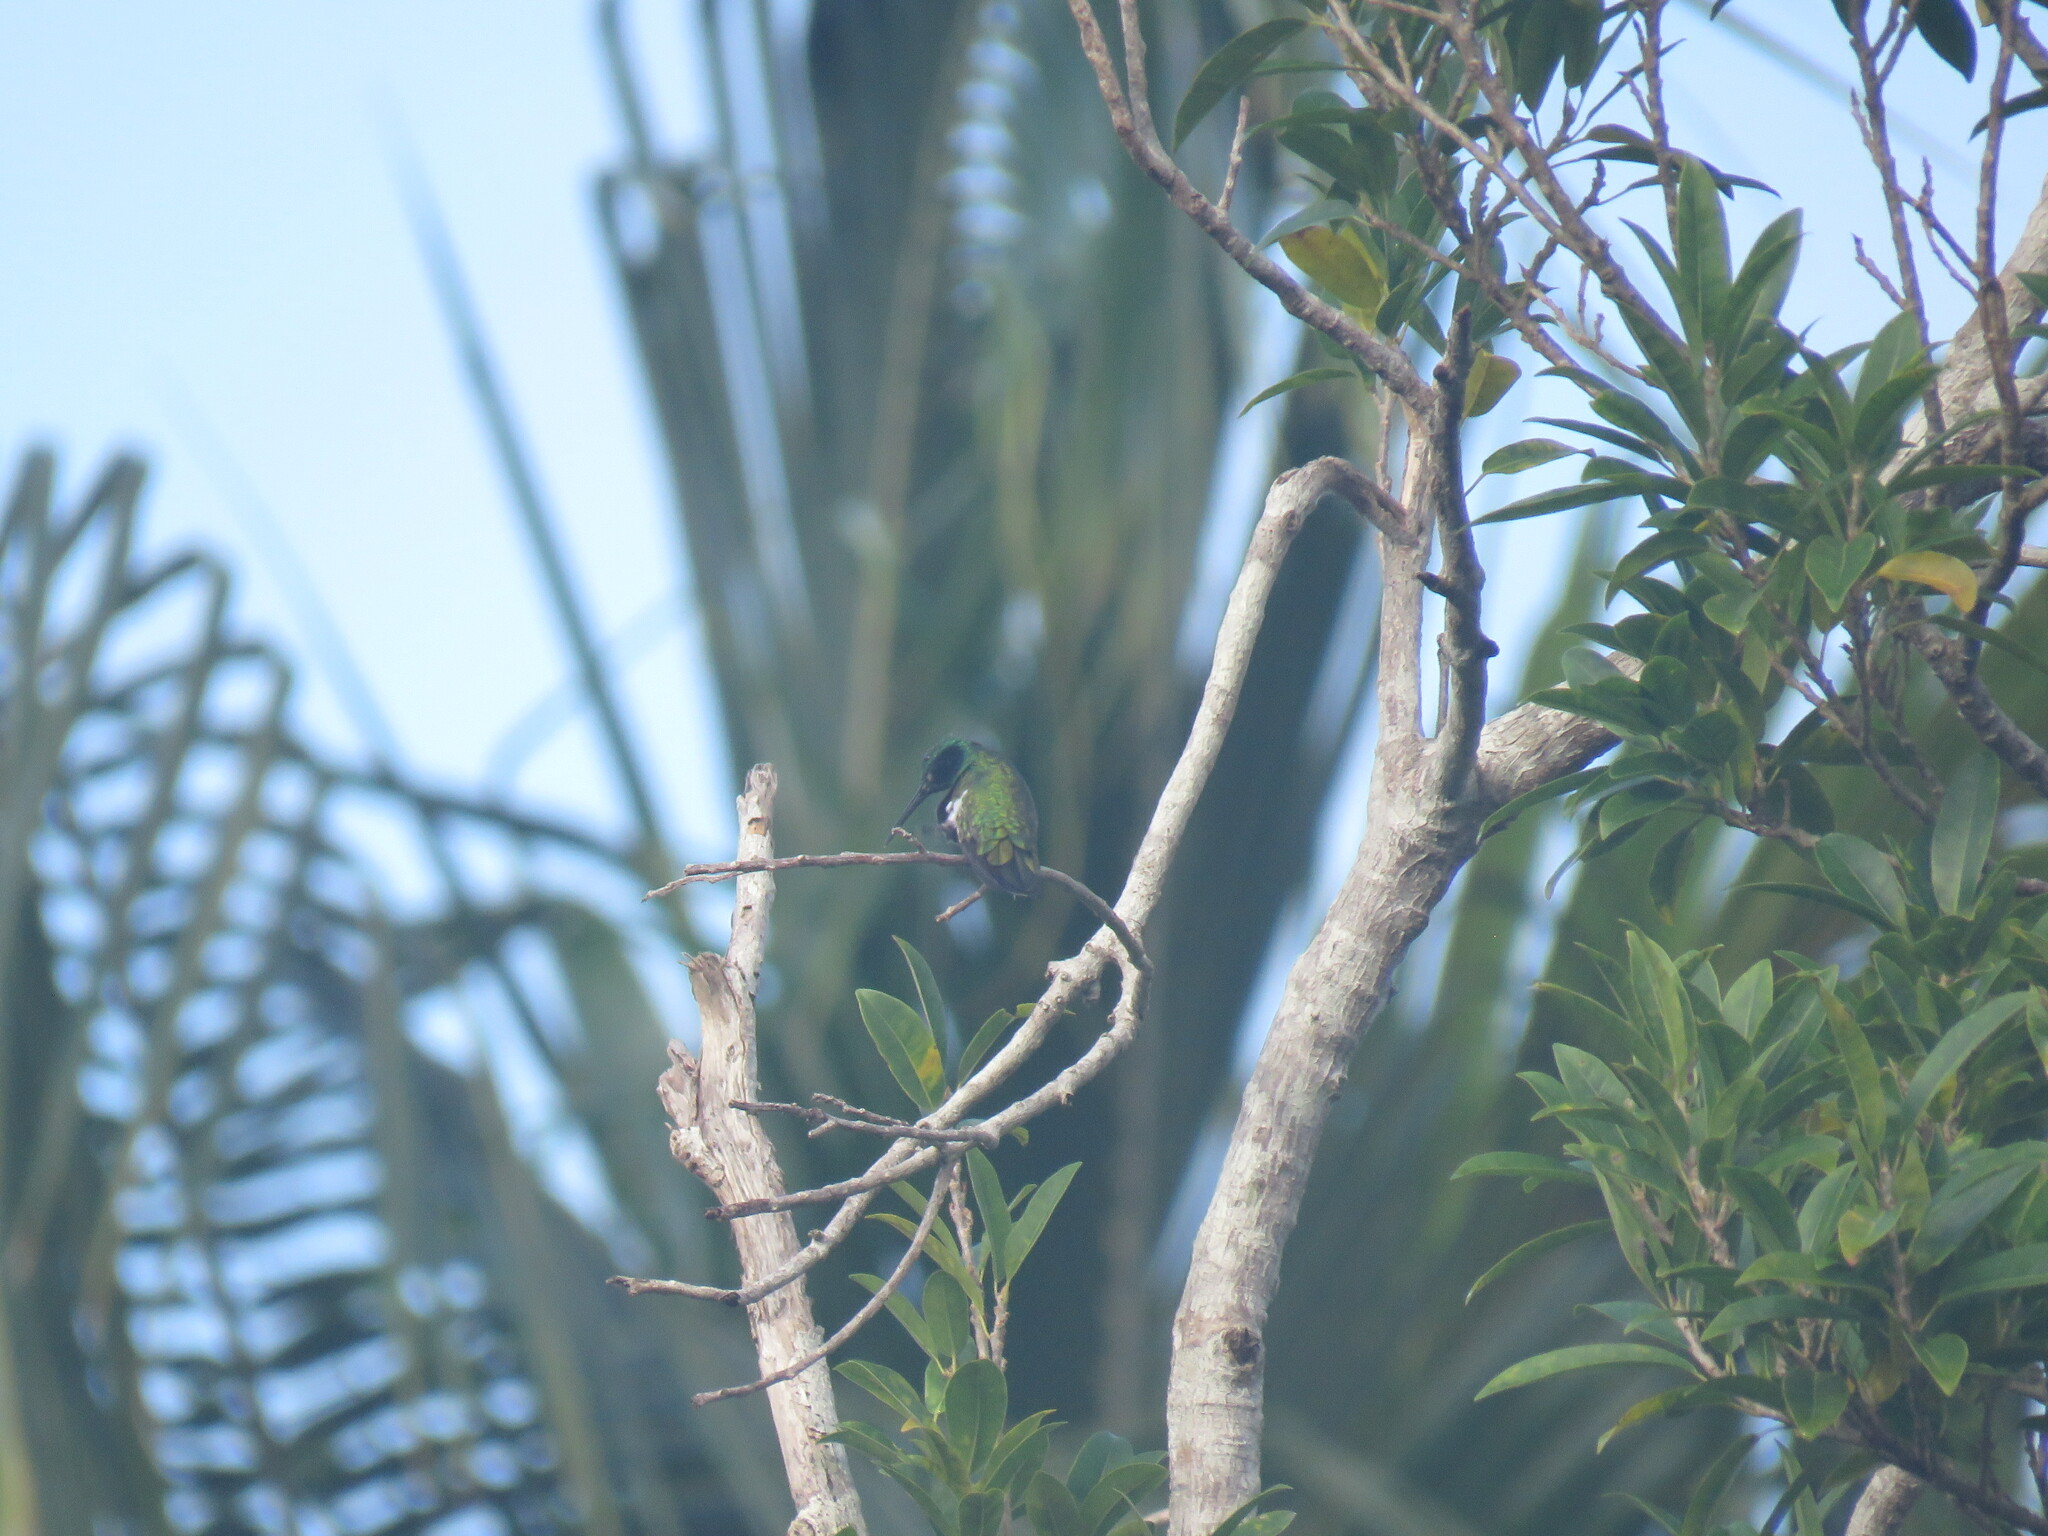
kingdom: Animalia
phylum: Chordata
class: Aves
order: Apodiformes
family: Trochilidae
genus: Anthracothorax
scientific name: Anthracothorax prevostii
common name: Green-breasted mango
